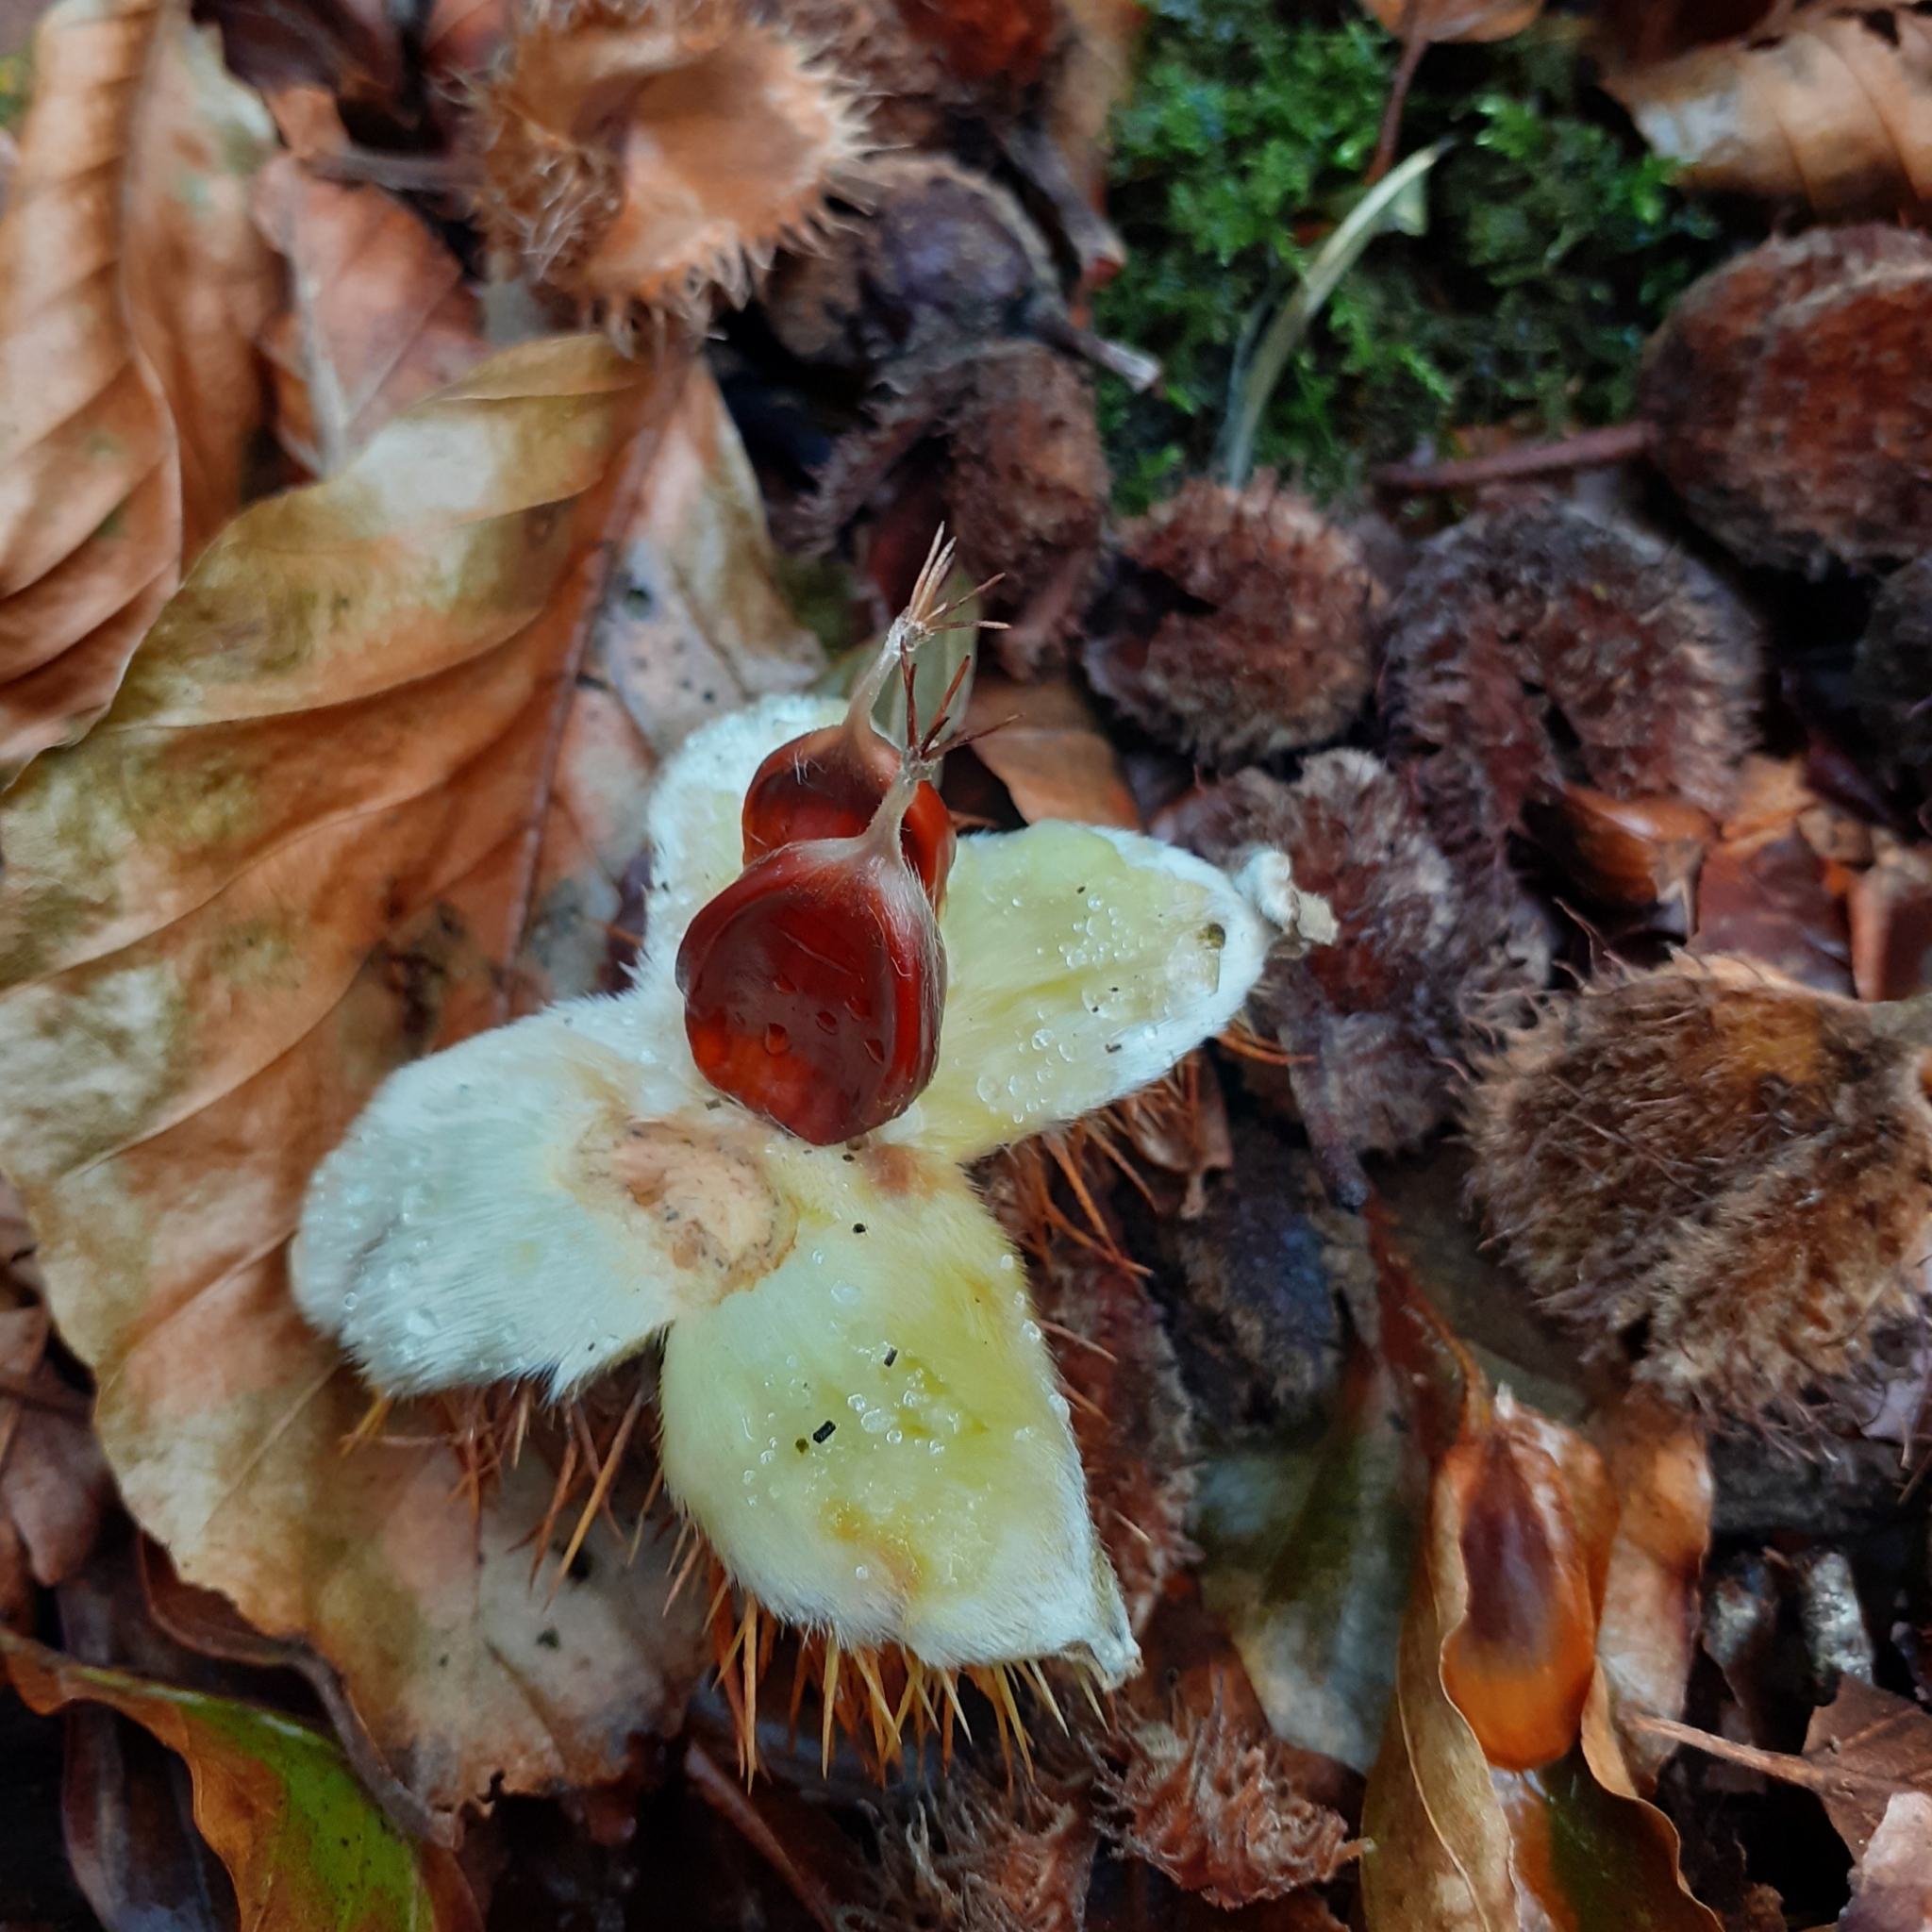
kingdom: Plantae
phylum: Tracheophyta
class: Magnoliopsida
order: Fagales
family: Fagaceae
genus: Castanea
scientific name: Castanea sativa
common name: Sweet chestnut
